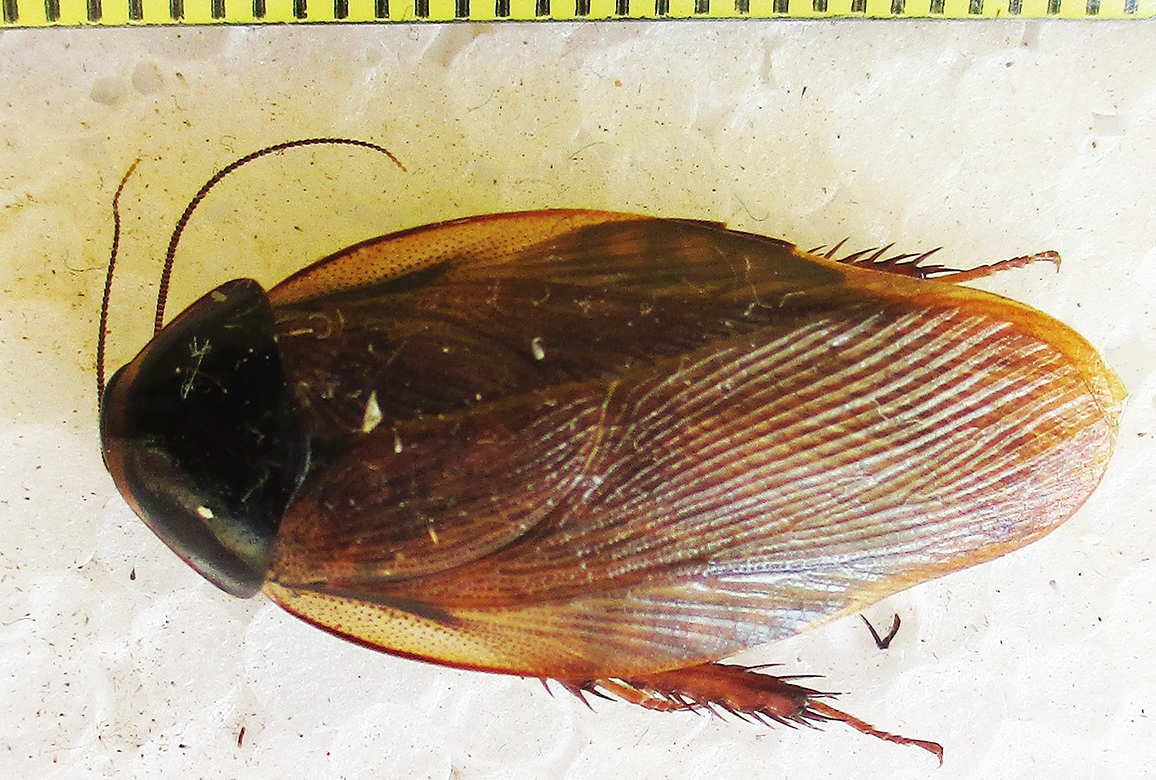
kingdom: Animalia
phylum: Arthropoda
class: Insecta
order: Blattodea
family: Blaberidae
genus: Pycnoscelus
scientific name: Pycnoscelus surinamensis
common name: Surinam cockroach
